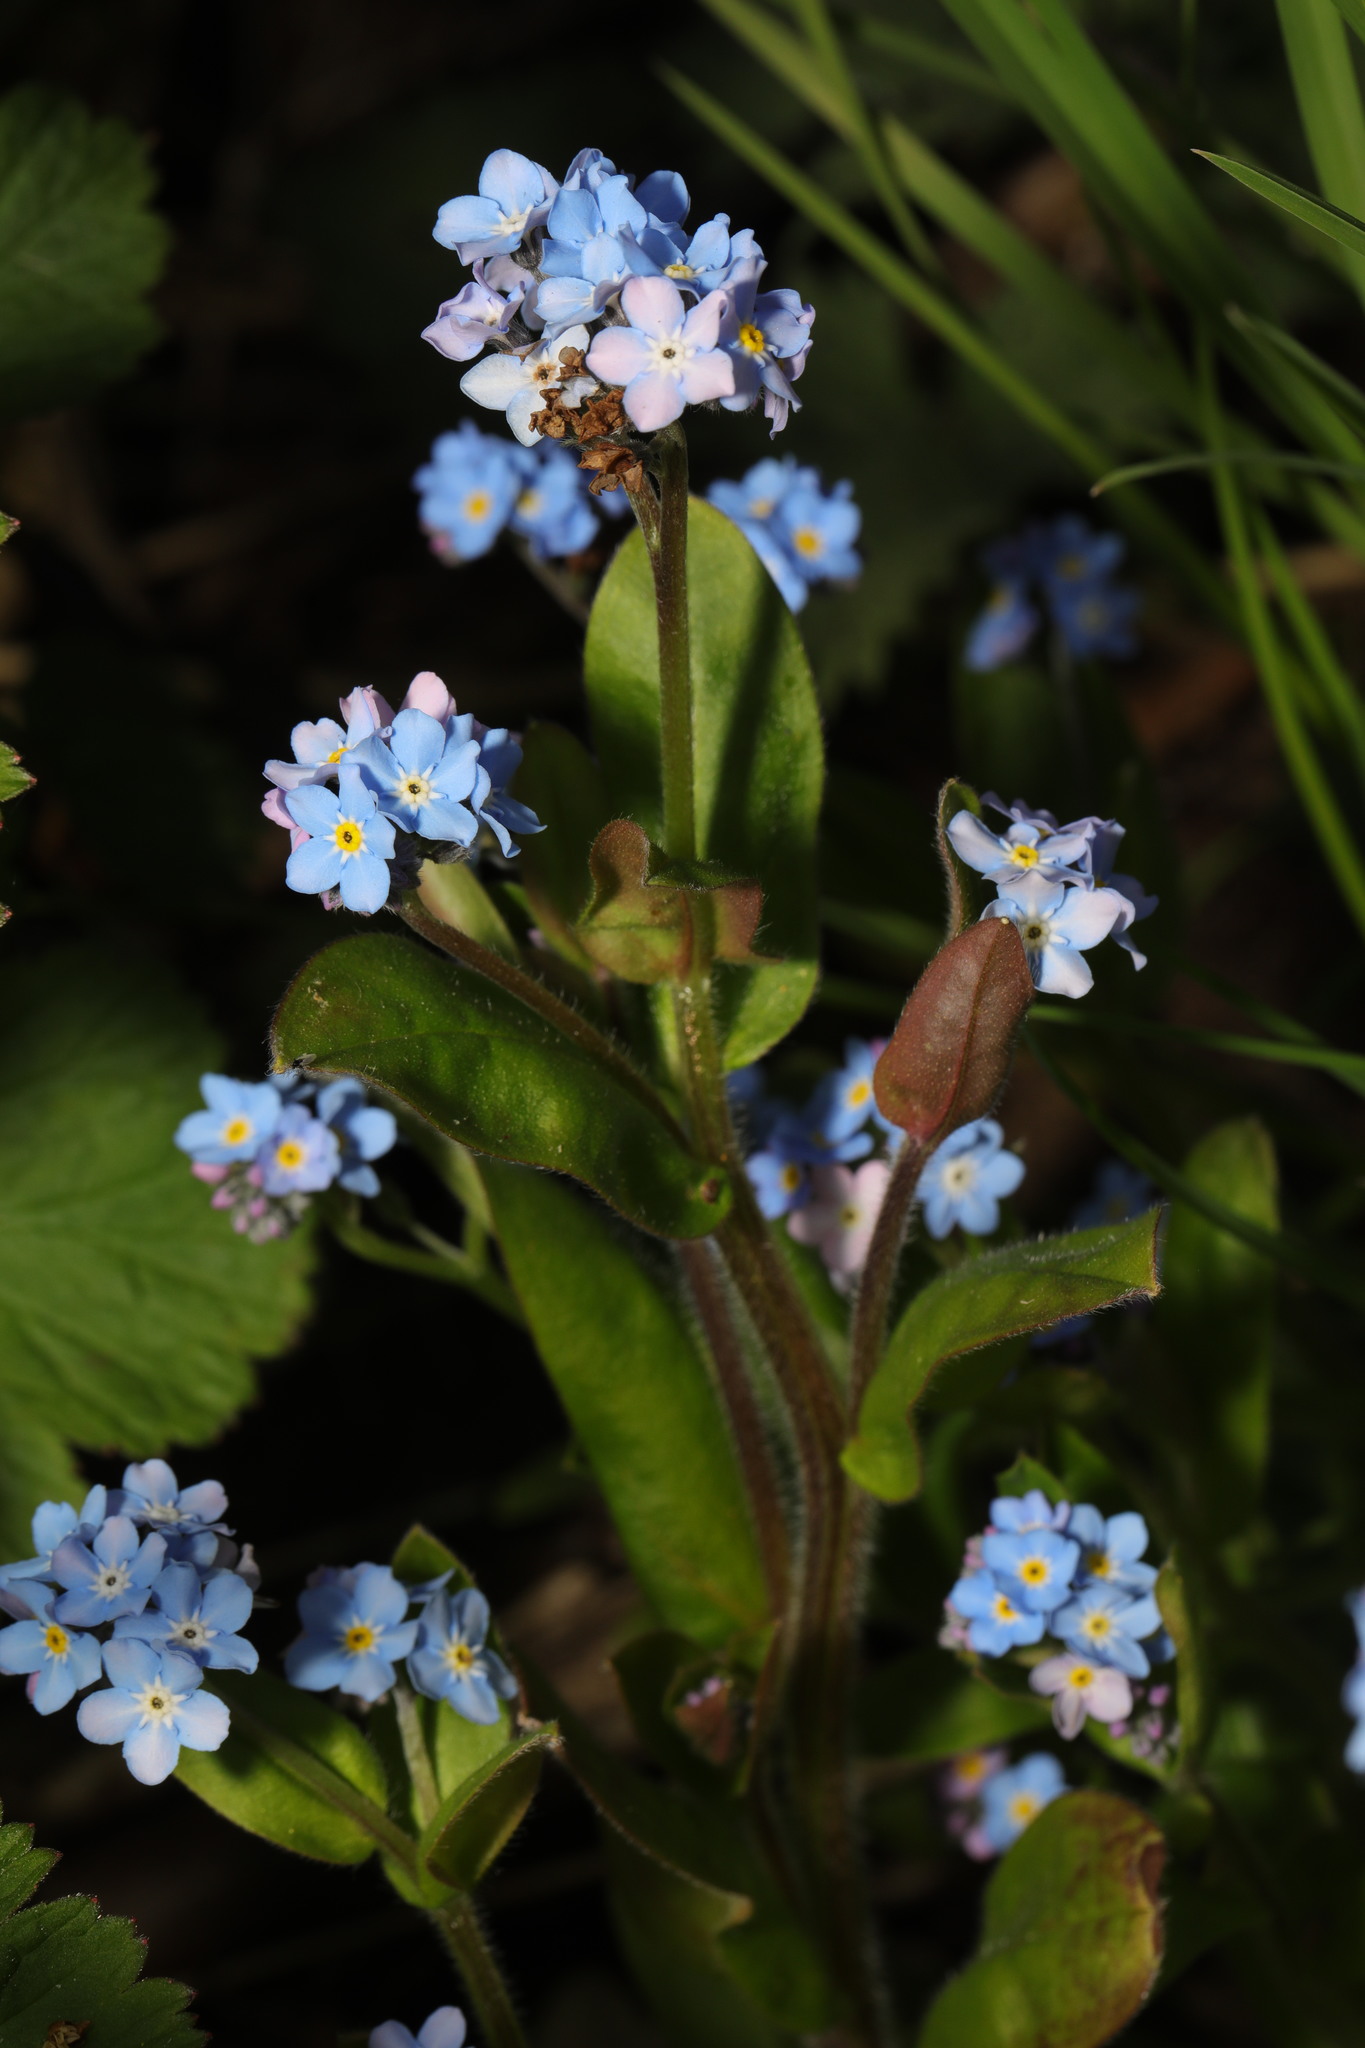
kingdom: Plantae
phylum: Tracheophyta
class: Magnoliopsida
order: Boraginales
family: Boraginaceae
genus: Myosotis
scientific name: Myosotis sylvatica
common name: Wood forget-me-not
